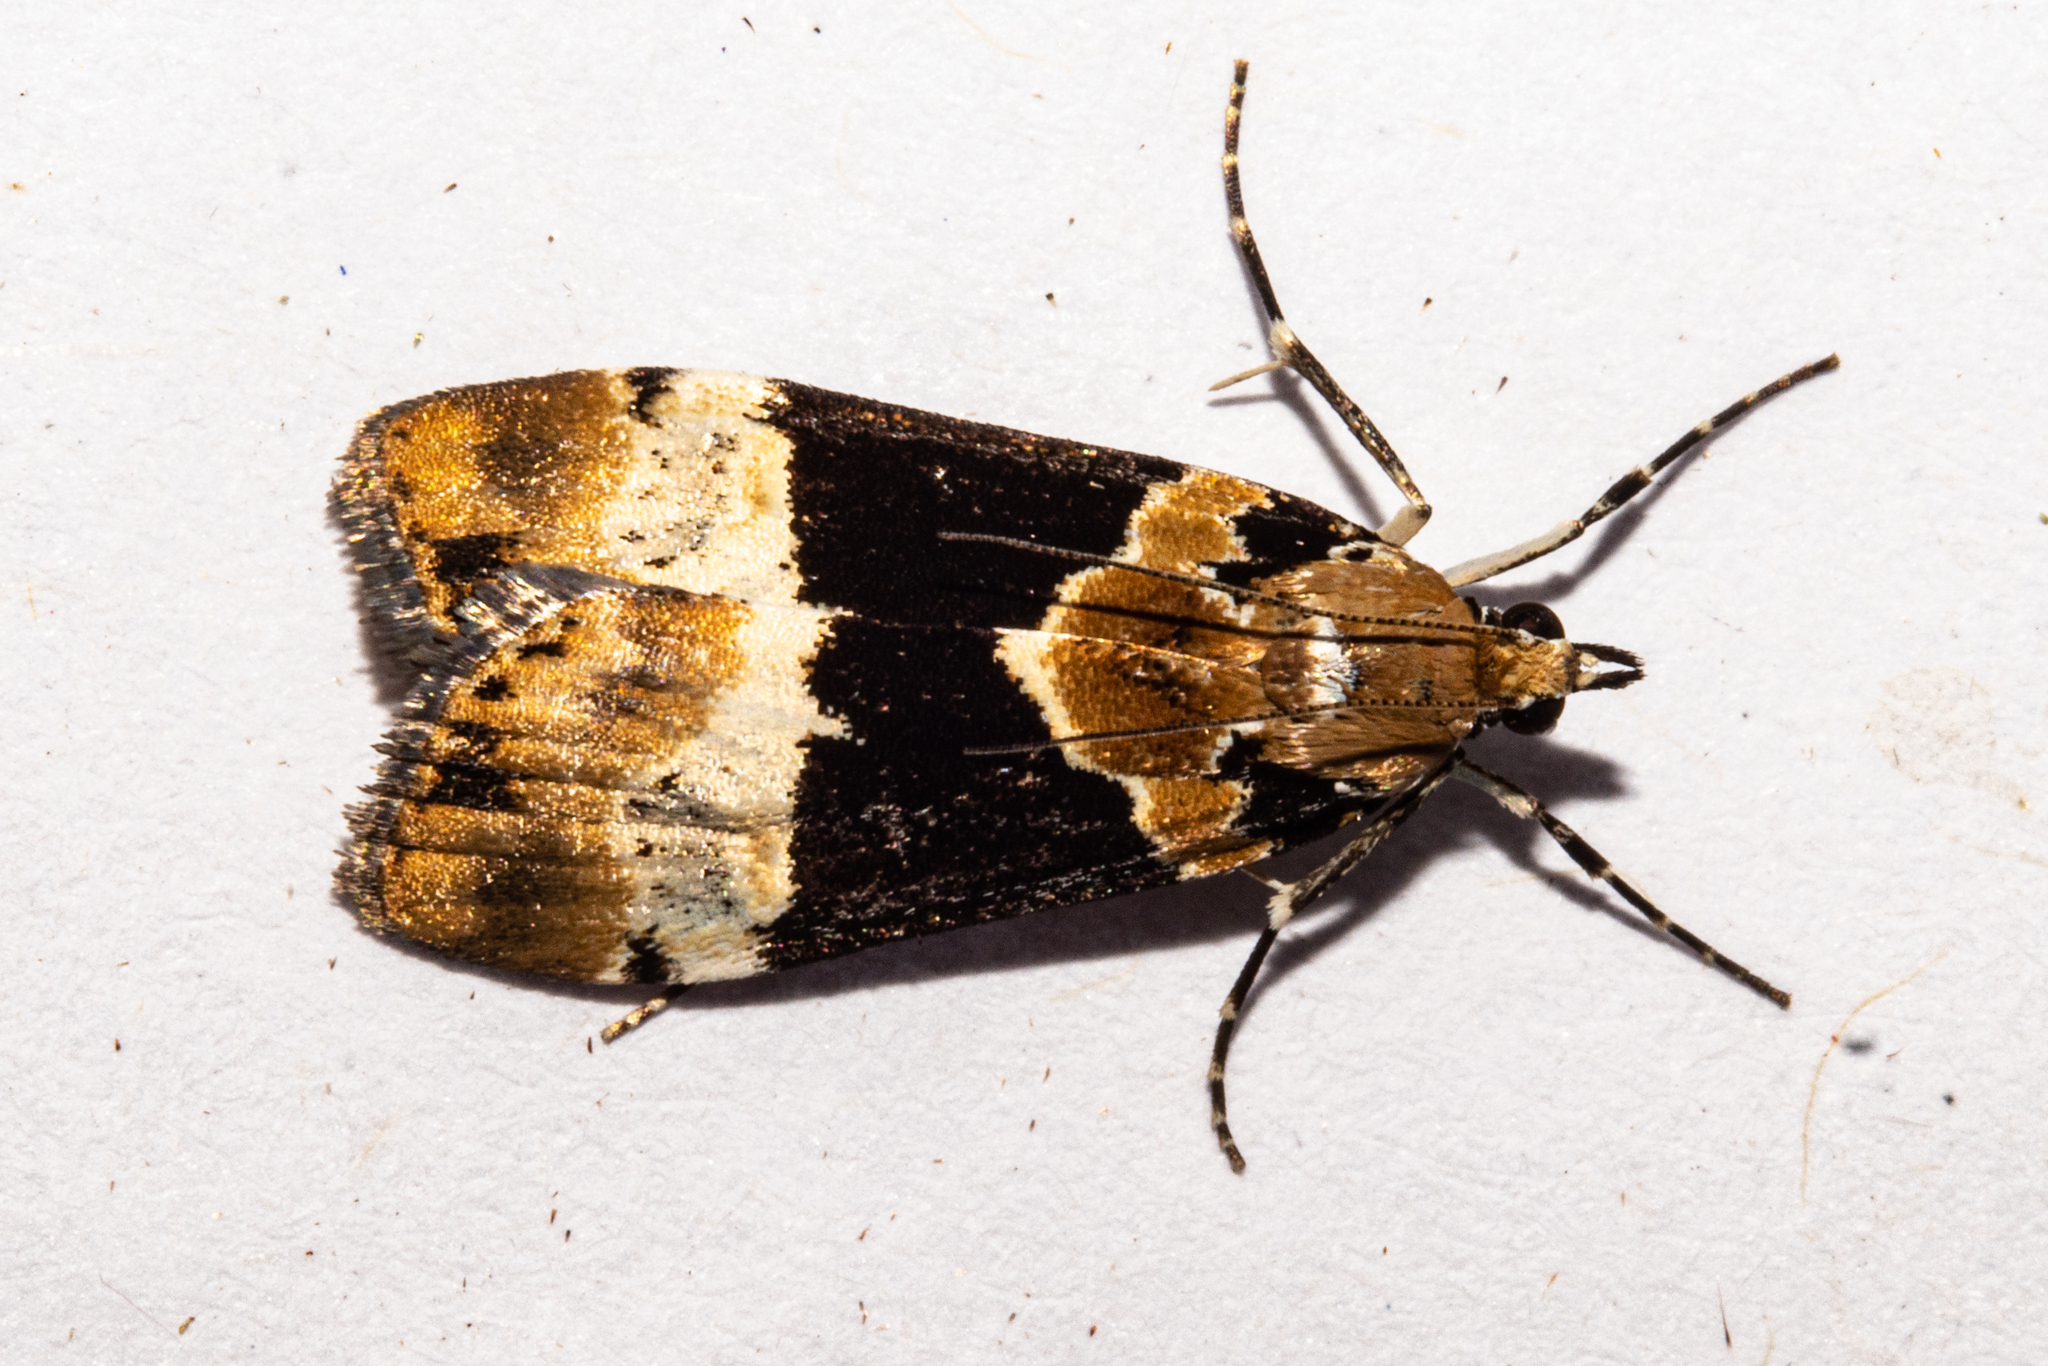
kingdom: Animalia
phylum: Arthropoda
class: Insecta
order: Lepidoptera
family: Crambidae
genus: Eudonia
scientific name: Eudonia aspidota
